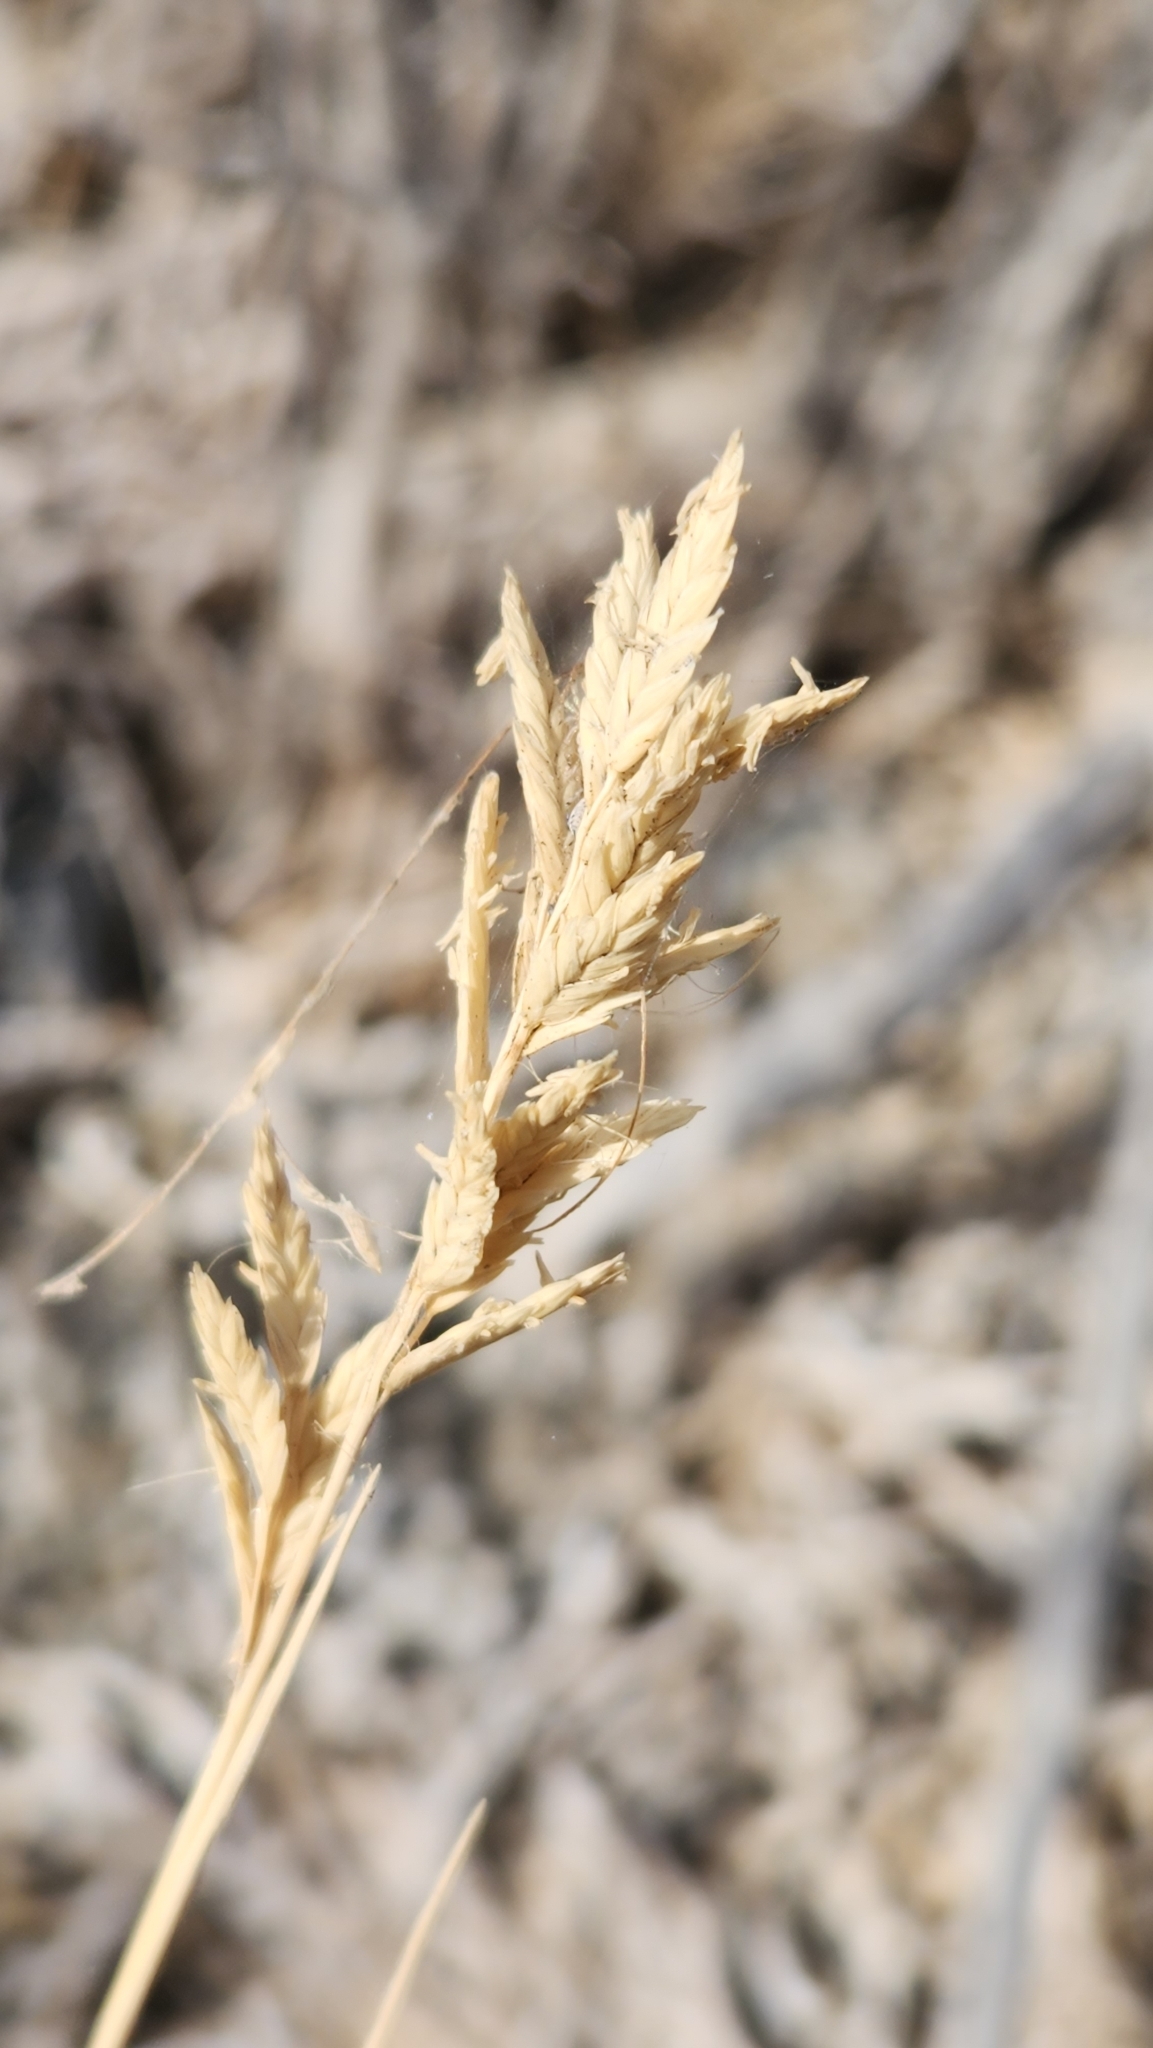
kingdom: Plantae
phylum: Tracheophyta
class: Liliopsida
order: Poales
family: Poaceae
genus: Distichlis
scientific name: Distichlis spicata
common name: Saltgrass
